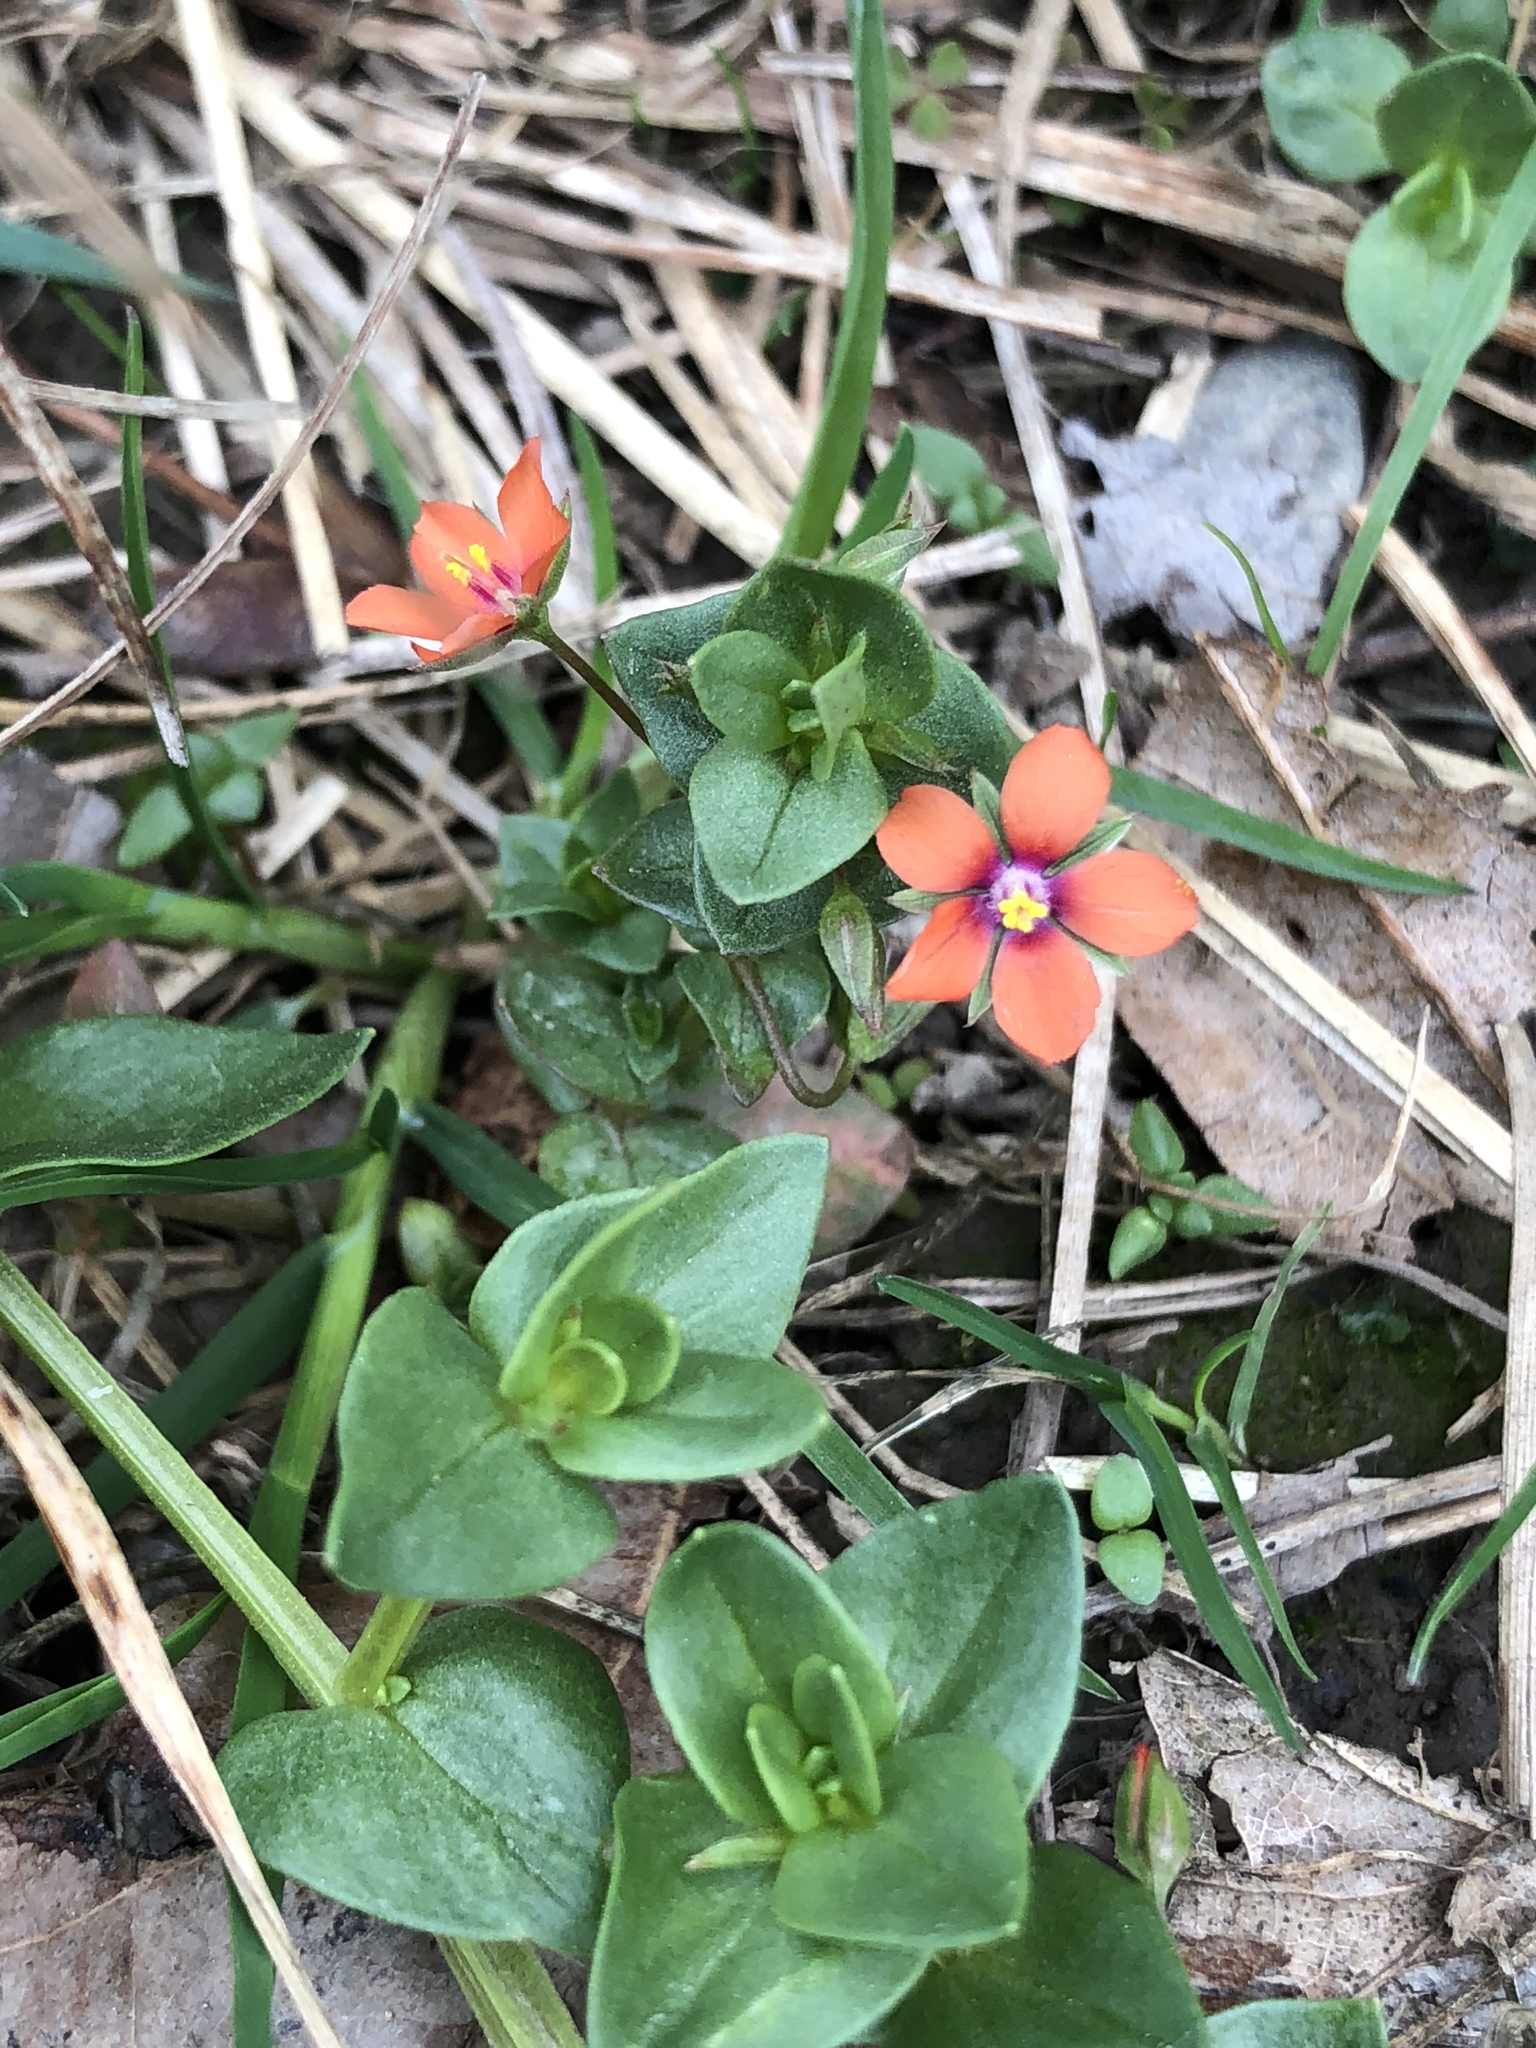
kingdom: Plantae
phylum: Tracheophyta
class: Magnoliopsida
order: Ericales
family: Primulaceae
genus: Lysimachia
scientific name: Lysimachia arvensis
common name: Scarlet pimpernel
